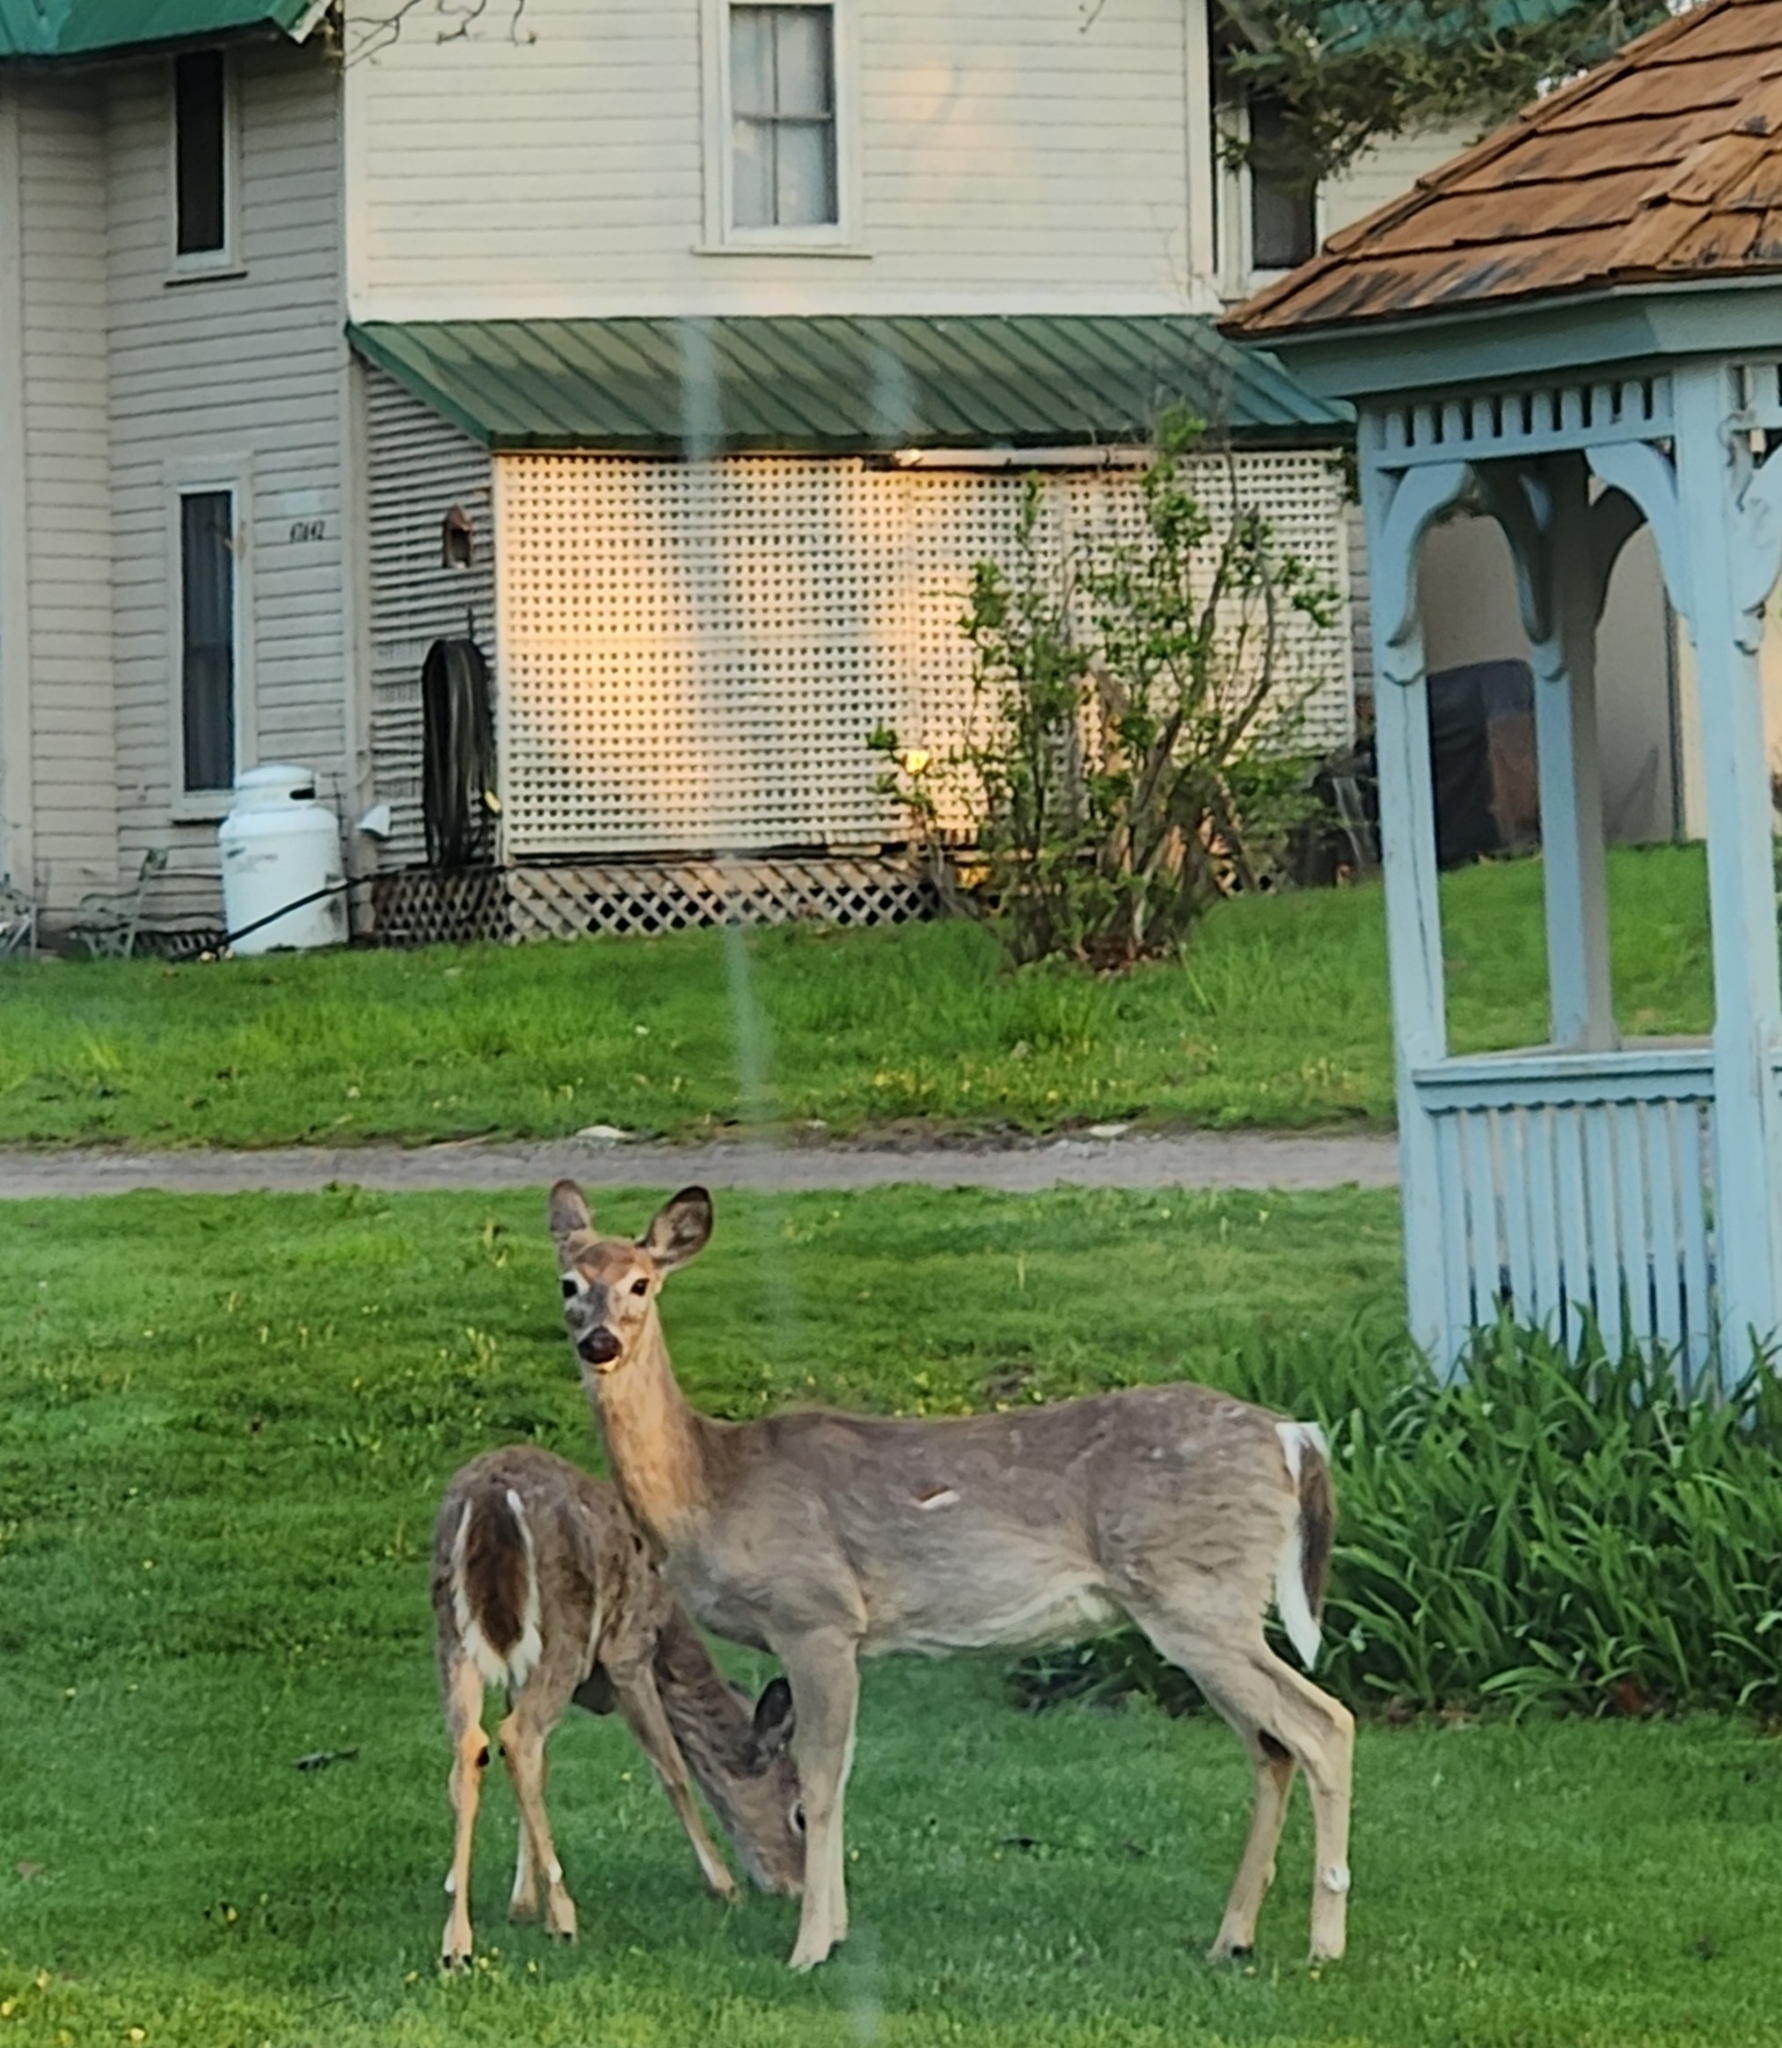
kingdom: Animalia
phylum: Chordata
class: Mammalia
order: Artiodactyla
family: Cervidae
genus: Odocoileus
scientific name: Odocoileus virginianus
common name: White-tailed deer
